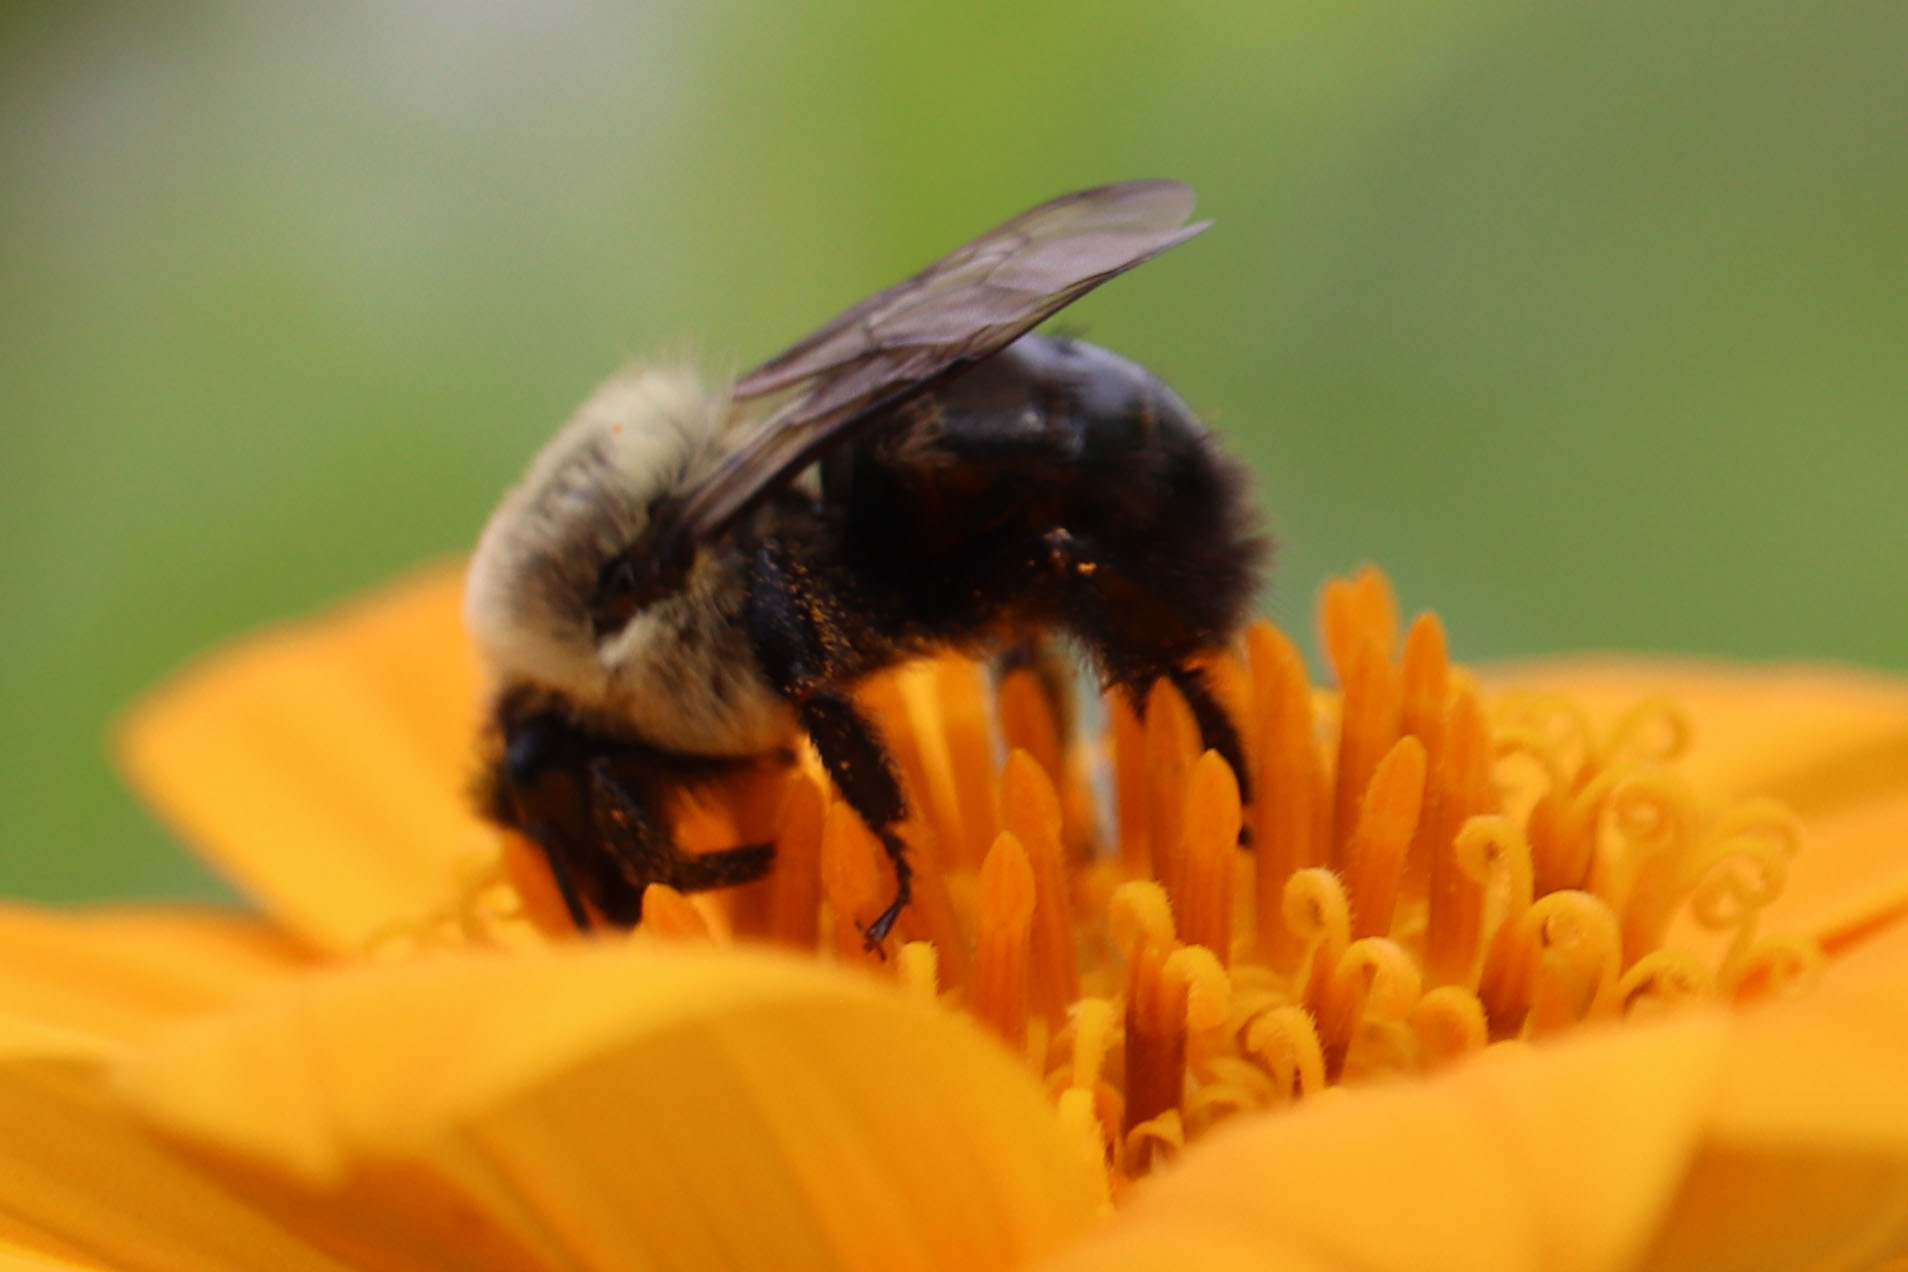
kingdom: Animalia
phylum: Arthropoda
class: Insecta
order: Hymenoptera
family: Apidae
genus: Bombus
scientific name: Bombus impatiens
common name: Common eastern bumble bee
